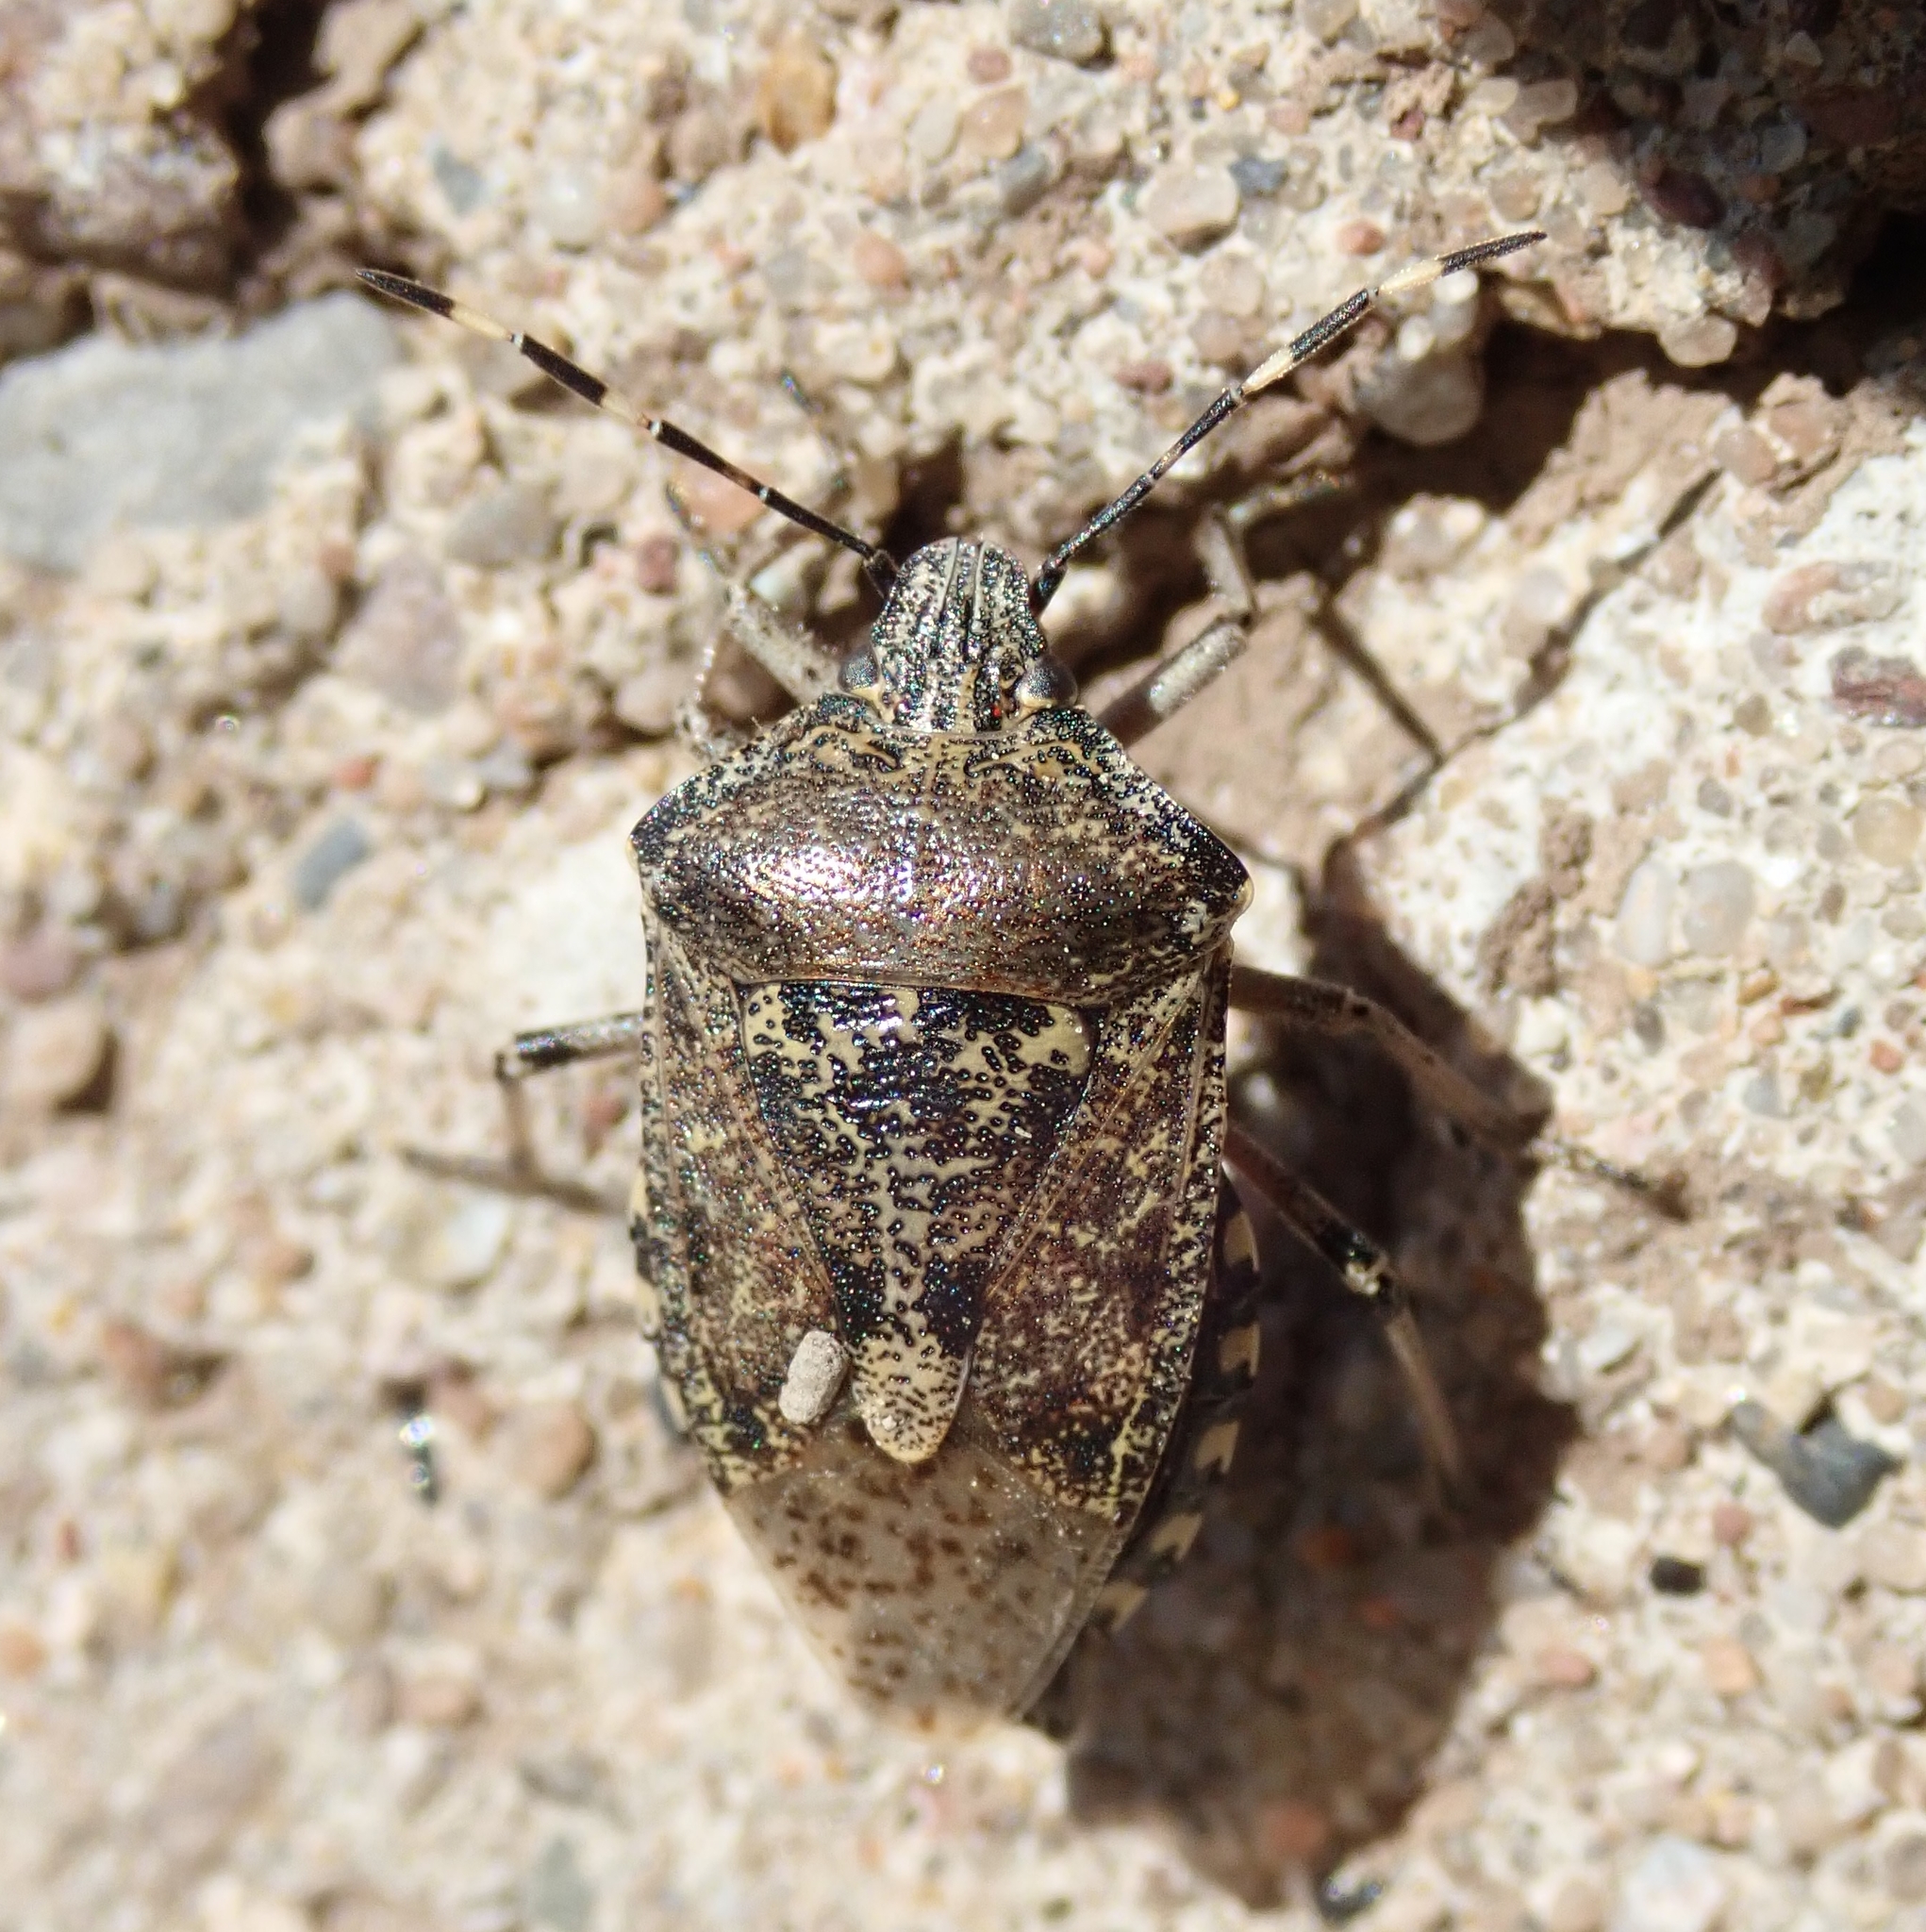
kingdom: Animalia
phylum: Arthropoda
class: Insecta
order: Hemiptera
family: Pentatomidae
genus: Rhaphigaster
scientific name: Rhaphigaster nebulosa
